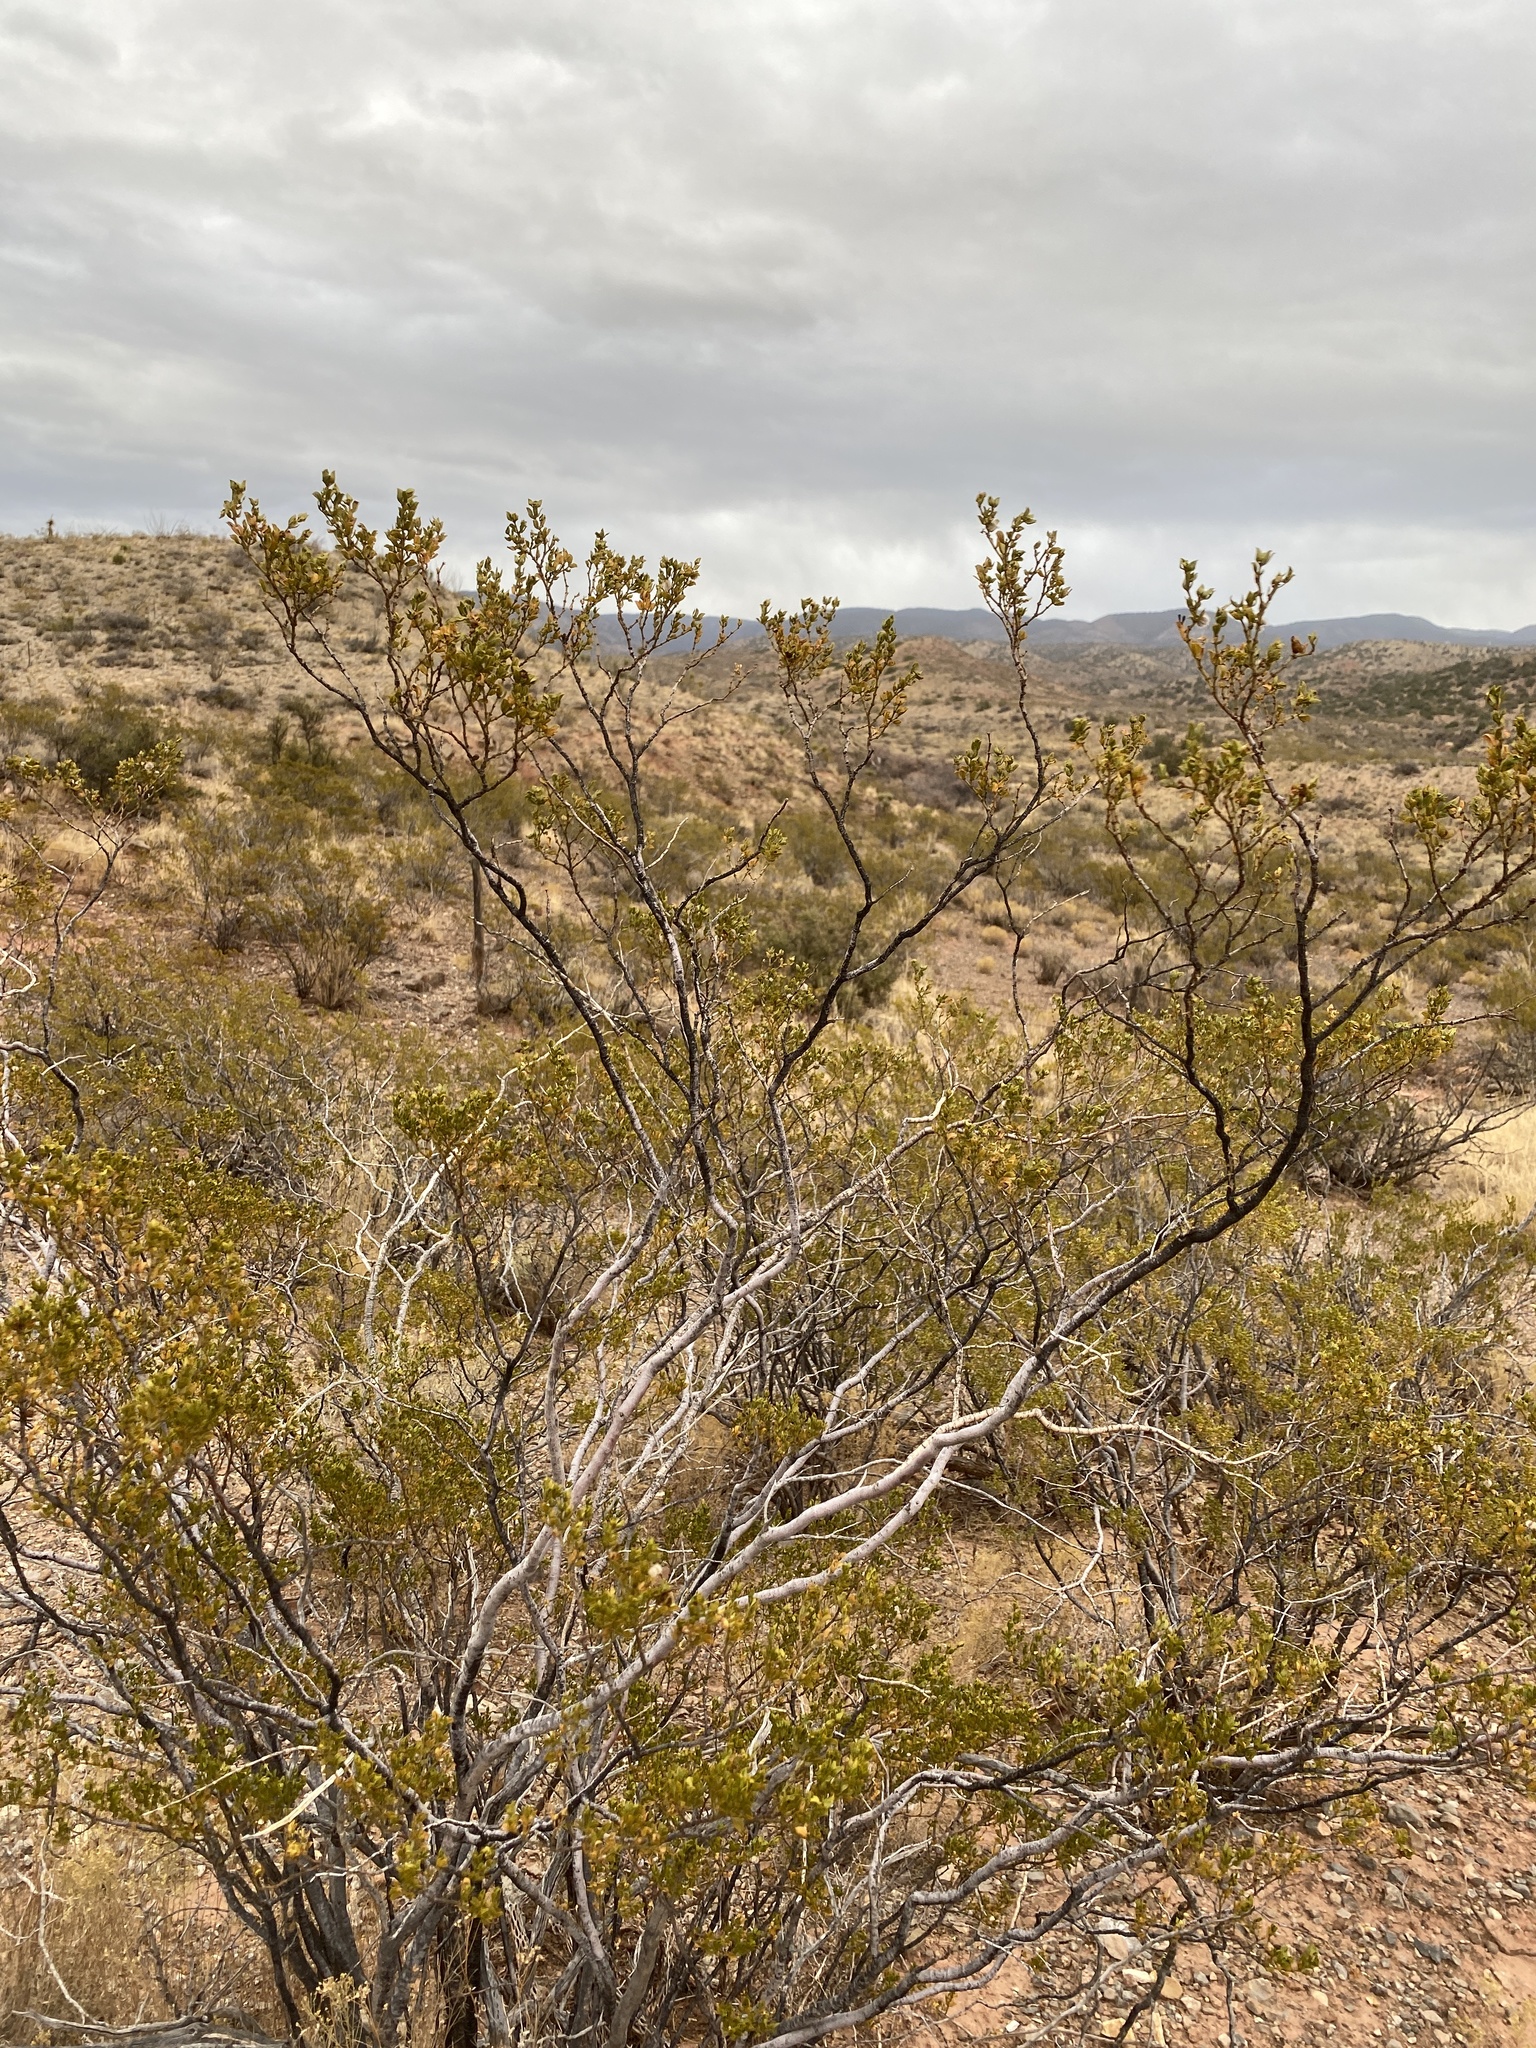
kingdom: Plantae
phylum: Tracheophyta
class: Magnoliopsida
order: Zygophyllales
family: Zygophyllaceae
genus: Larrea
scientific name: Larrea tridentata
